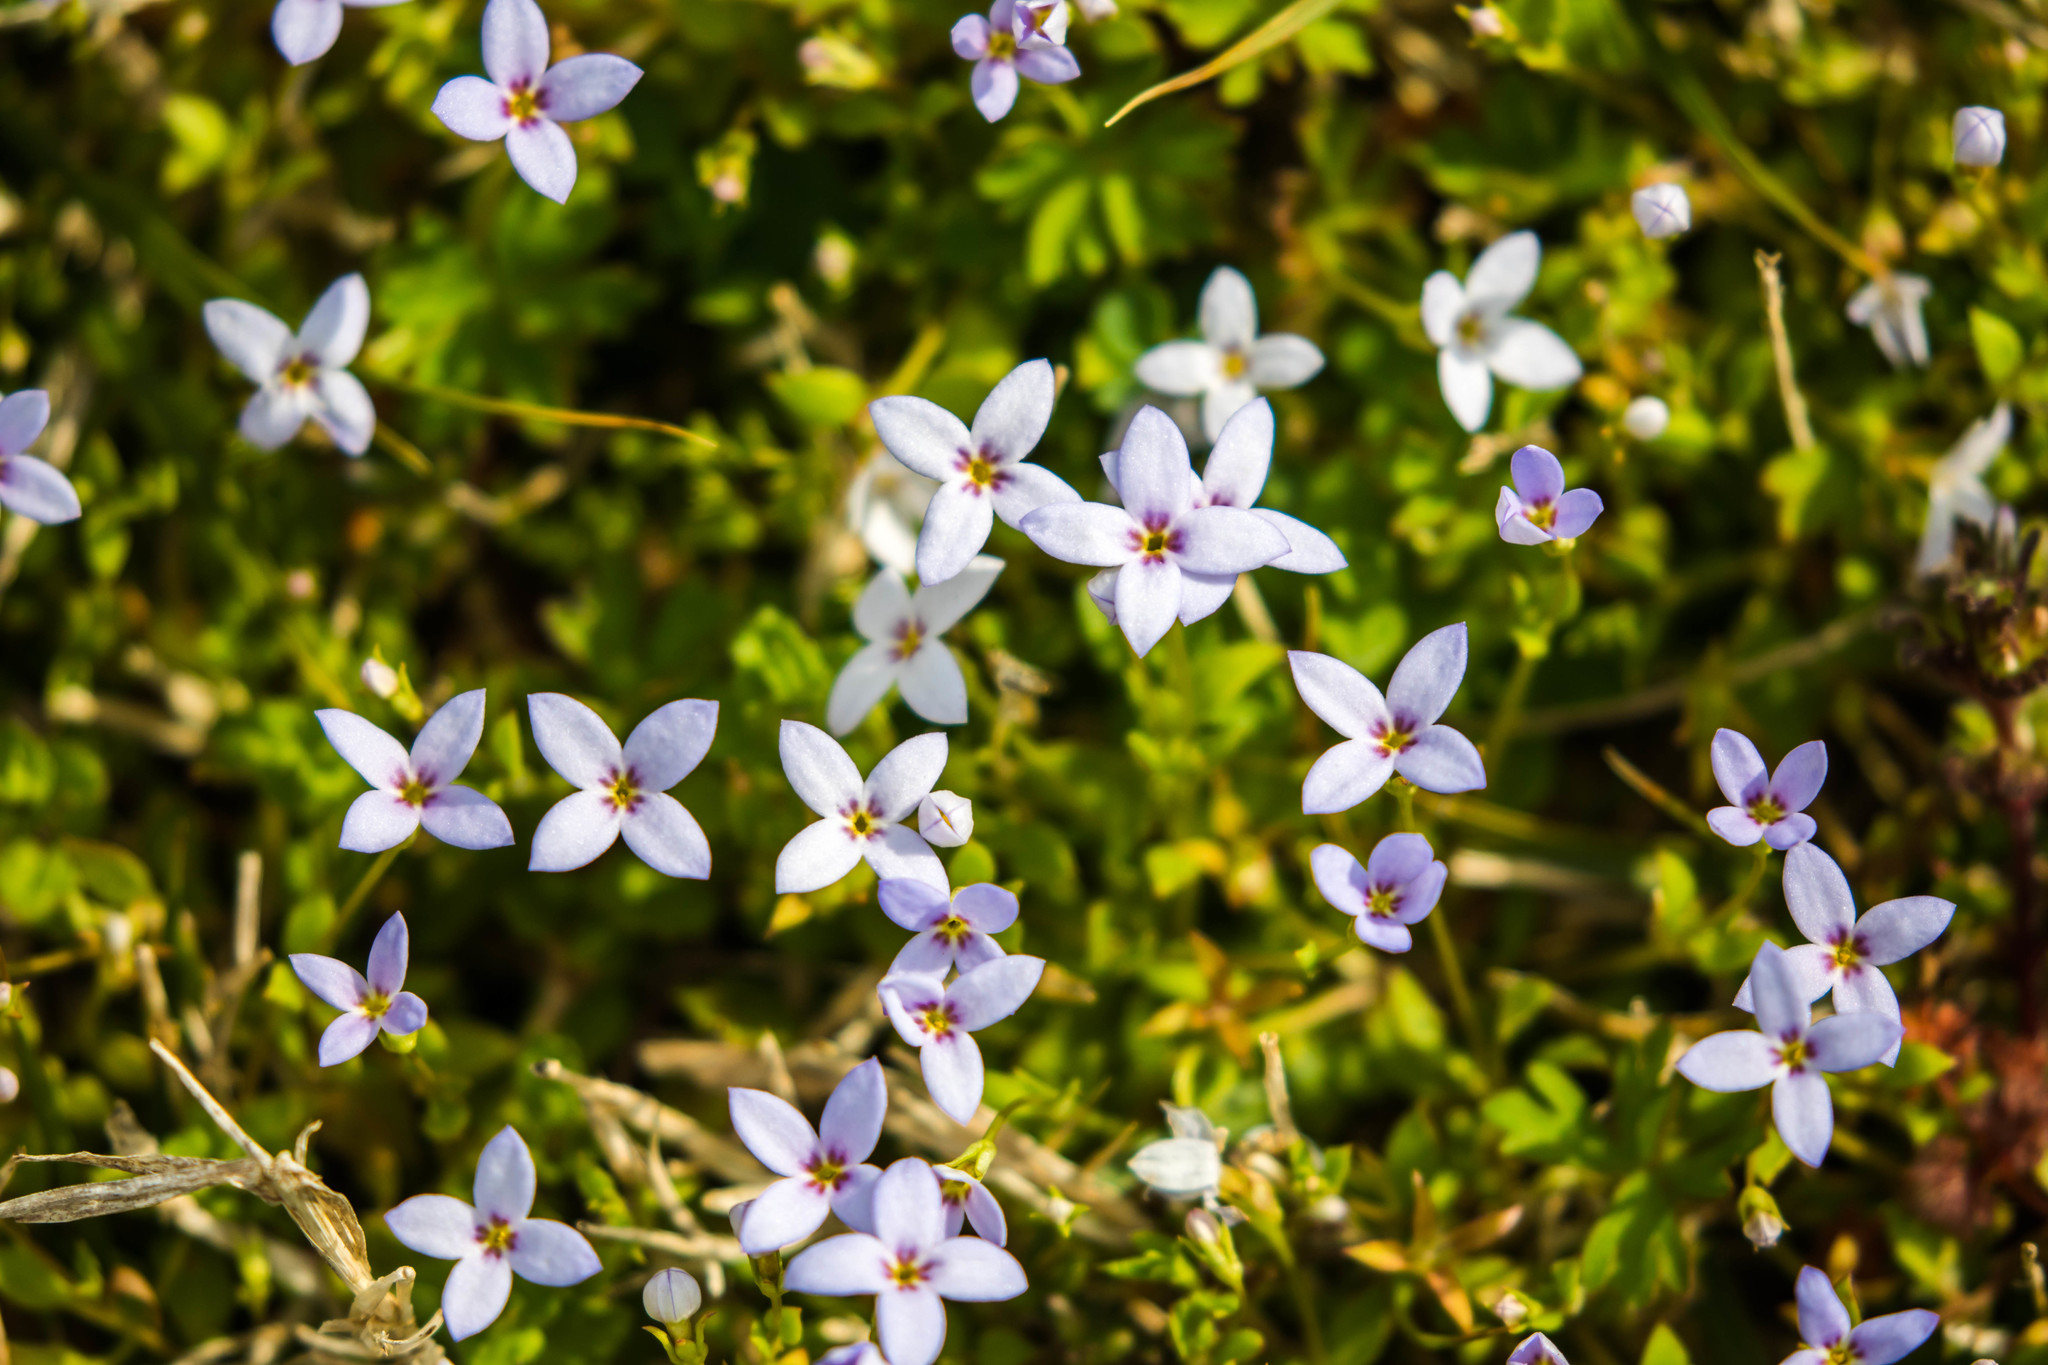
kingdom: Plantae
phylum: Tracheophyta
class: Magnoliopsida
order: Gentianales
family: Rubiaceae
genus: Houstonia
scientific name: Houstonia pusilla
